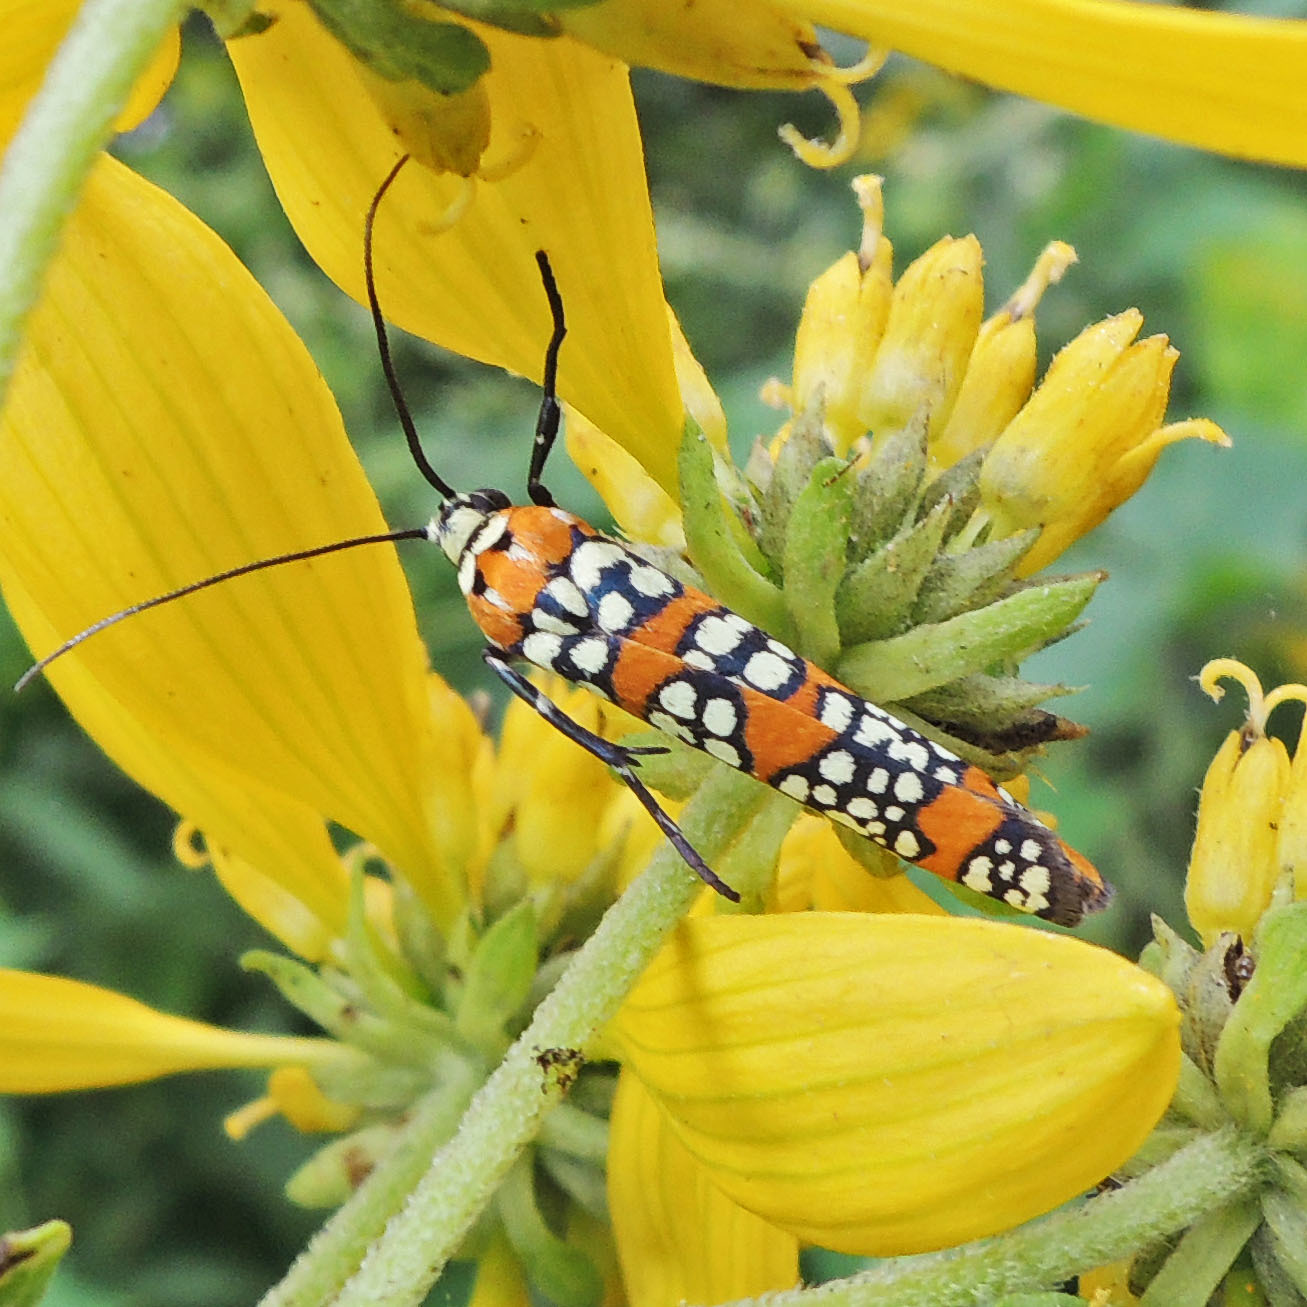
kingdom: Animalia
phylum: Arthropoda
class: Insecta
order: Lepidoptera
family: Attevidae
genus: Atteva
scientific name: Atteva punctella
